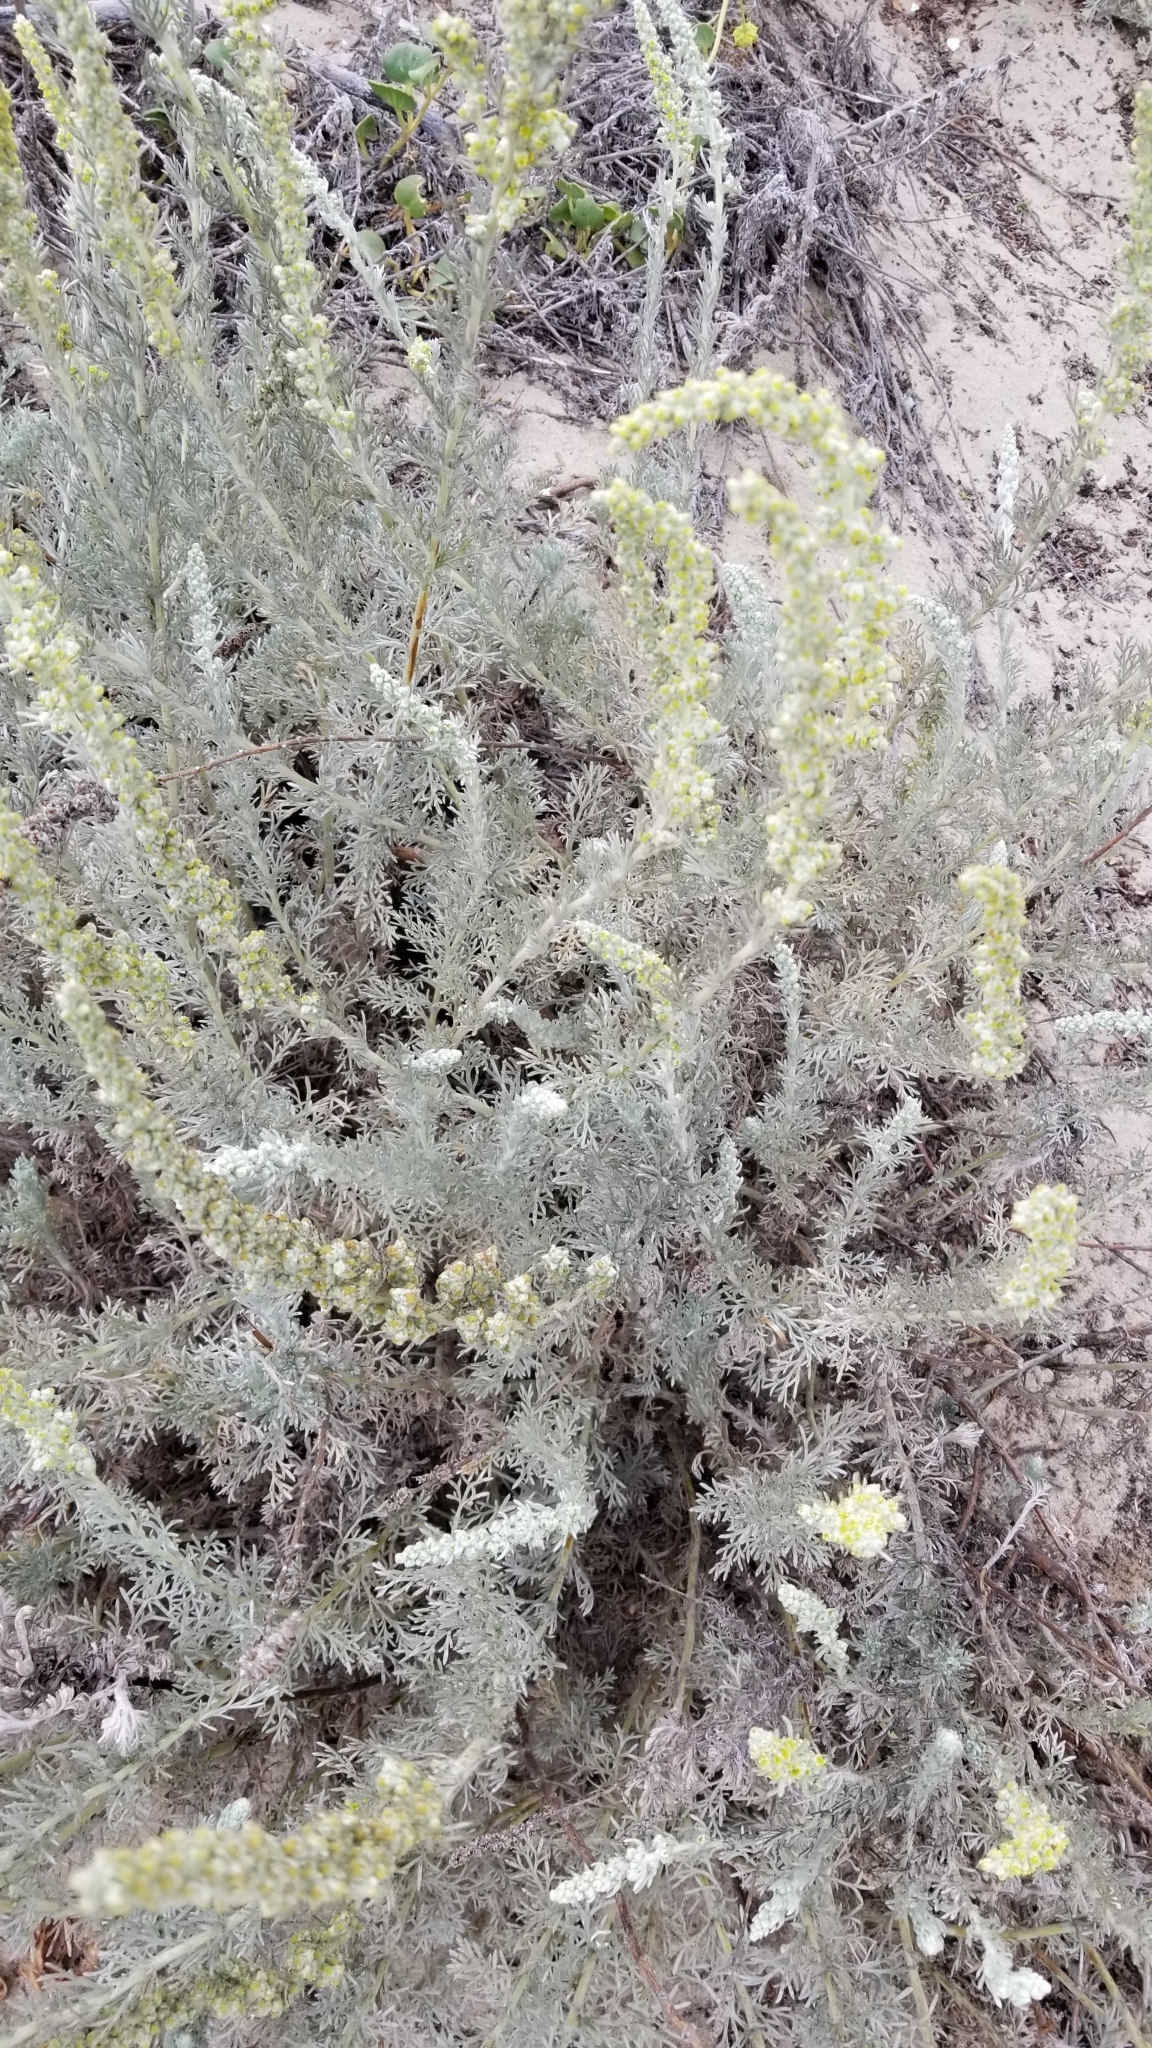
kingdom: Plantae
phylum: Tracheophyta
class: Magnoliopsida
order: Asterales
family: Asteraceae
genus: Artemisia
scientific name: Artemisia pycnocephala
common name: Coastal sagewort
